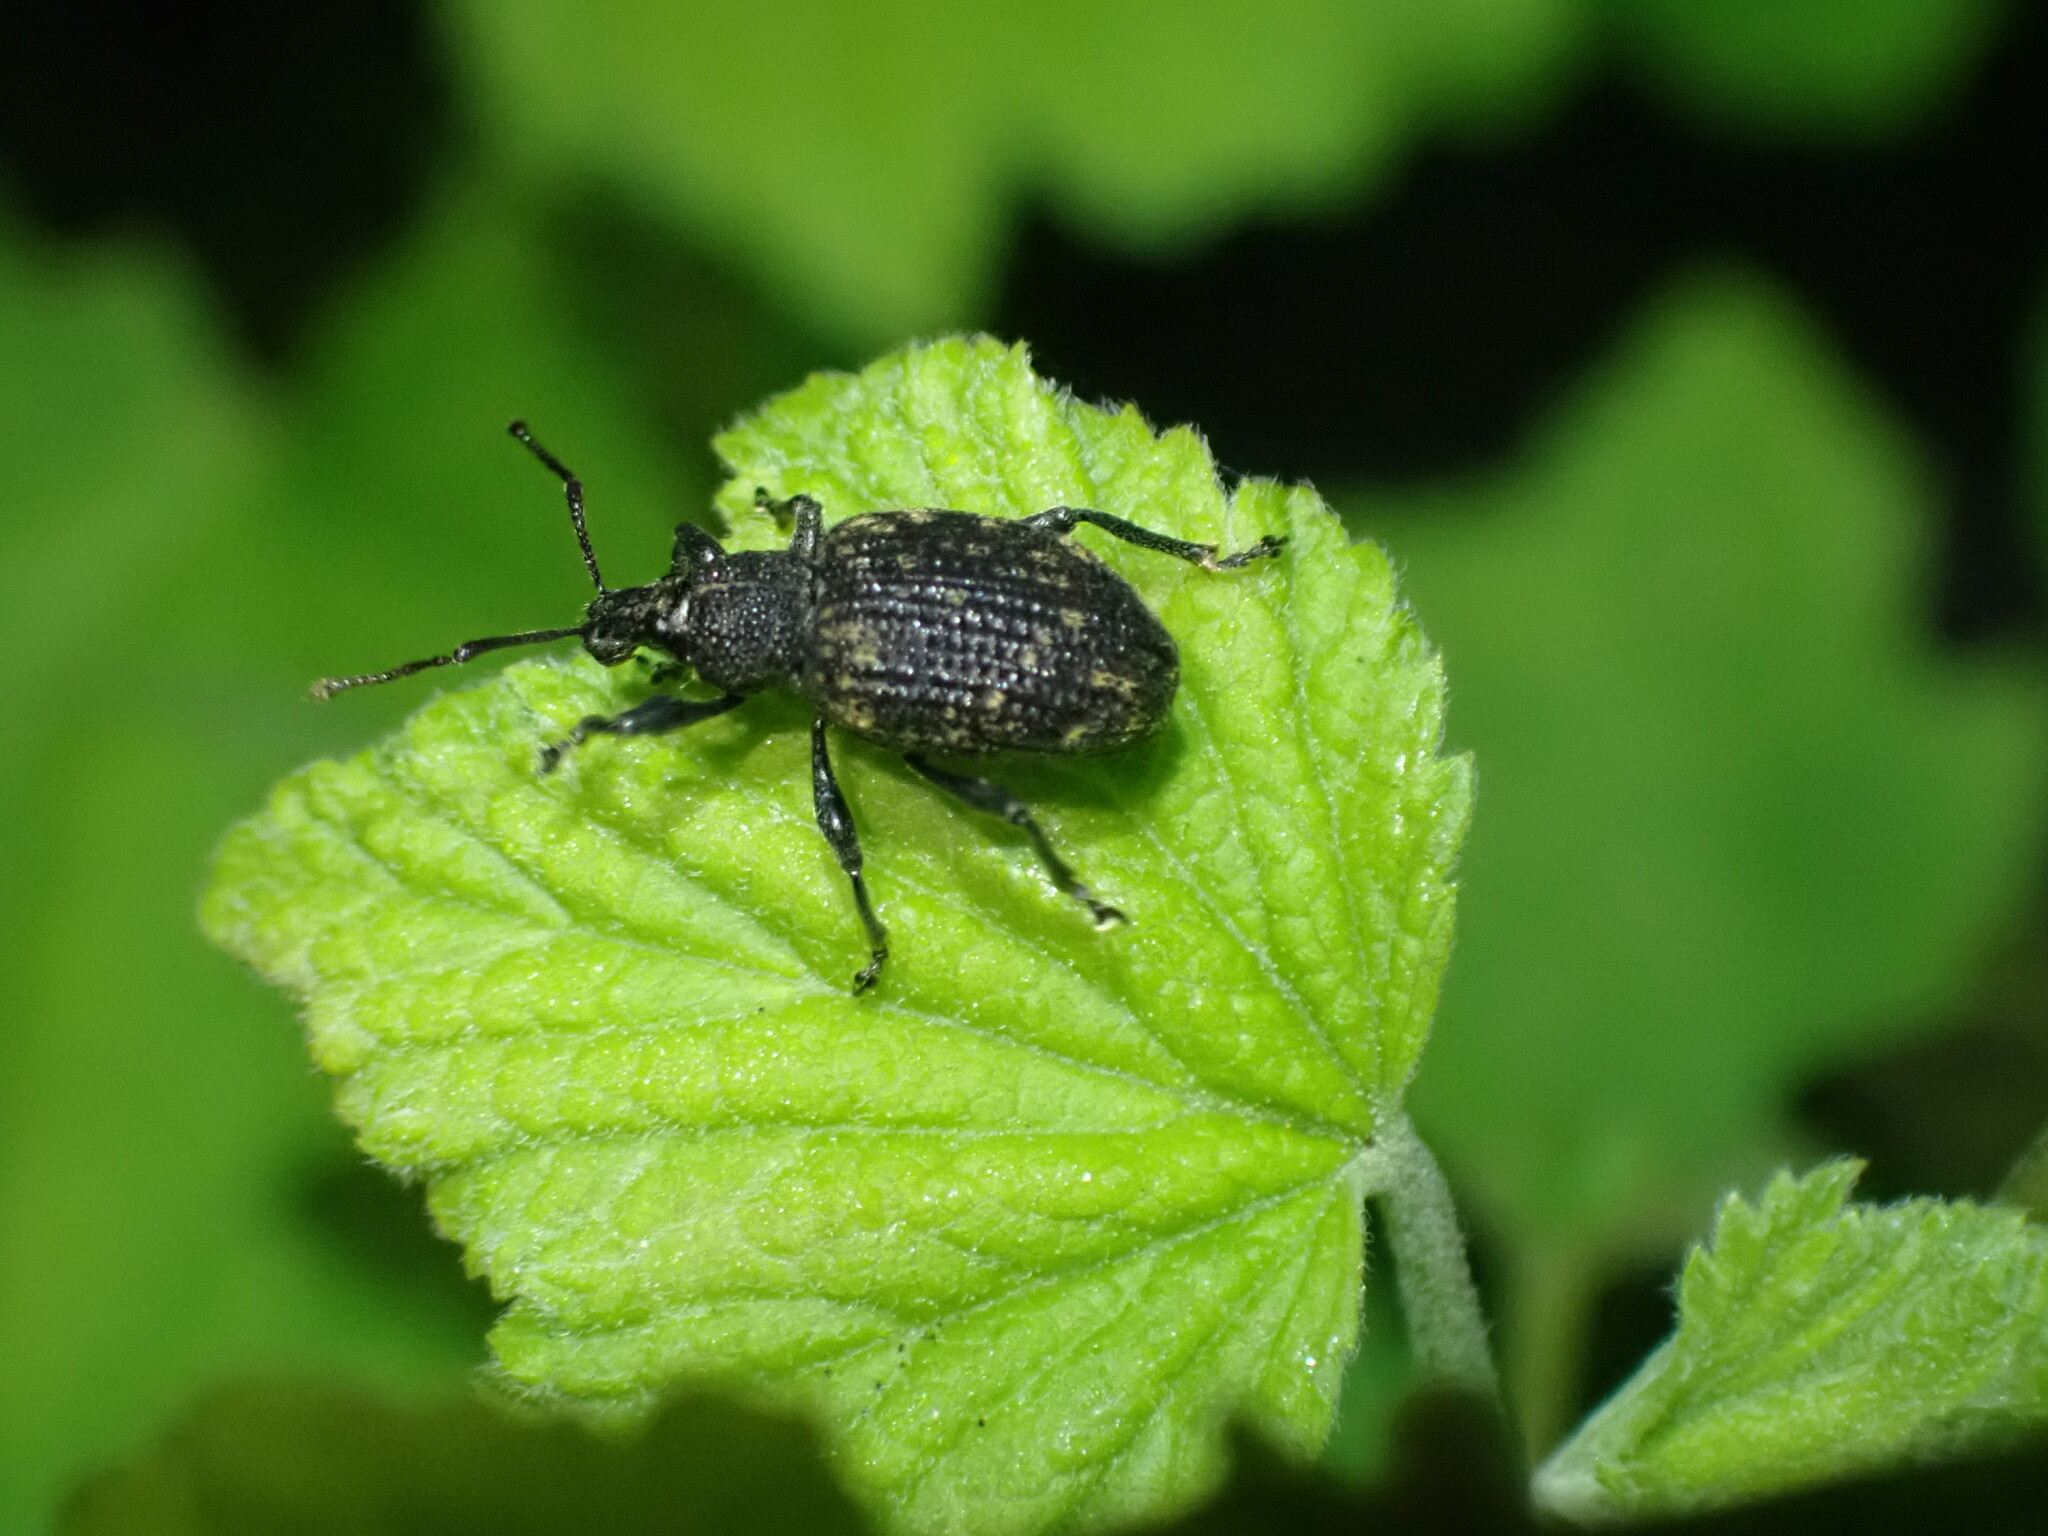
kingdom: Animalia
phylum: Arthropoda
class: Insecta
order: Coleoptera
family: Curculionidae
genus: Otiorhynchus
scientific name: Otiorhynchus sulcatus
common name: Black vine weevil
